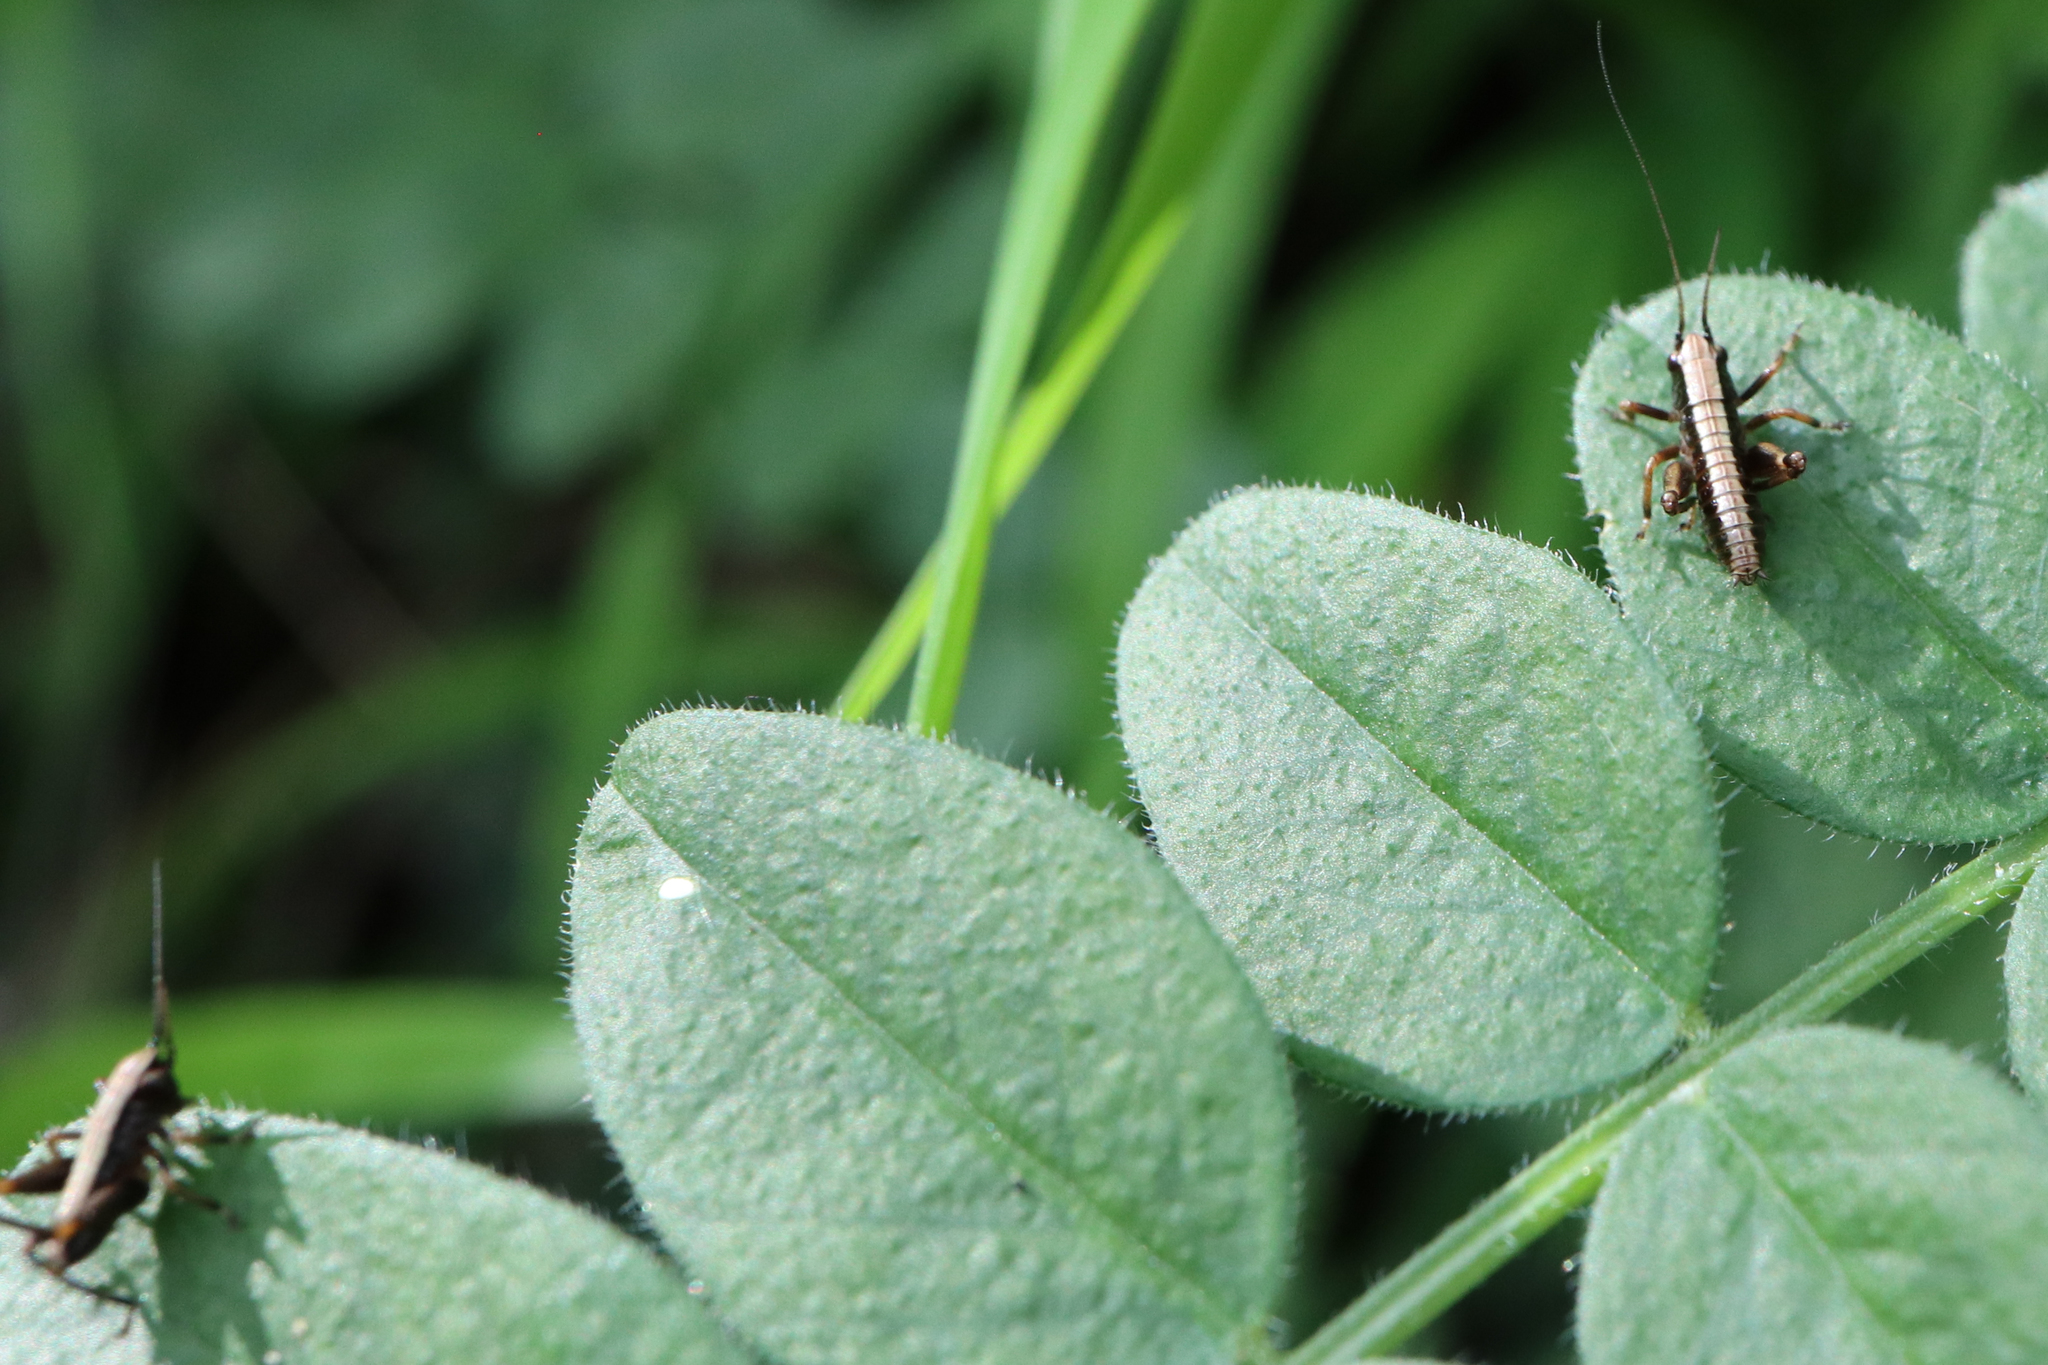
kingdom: Animalia
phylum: Arthropoda
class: Insecta
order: Orthoptera
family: Tettigoniidae
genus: Pholidoptera
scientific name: Pholidoptera griseoaptera
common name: Dark bush-cricket
